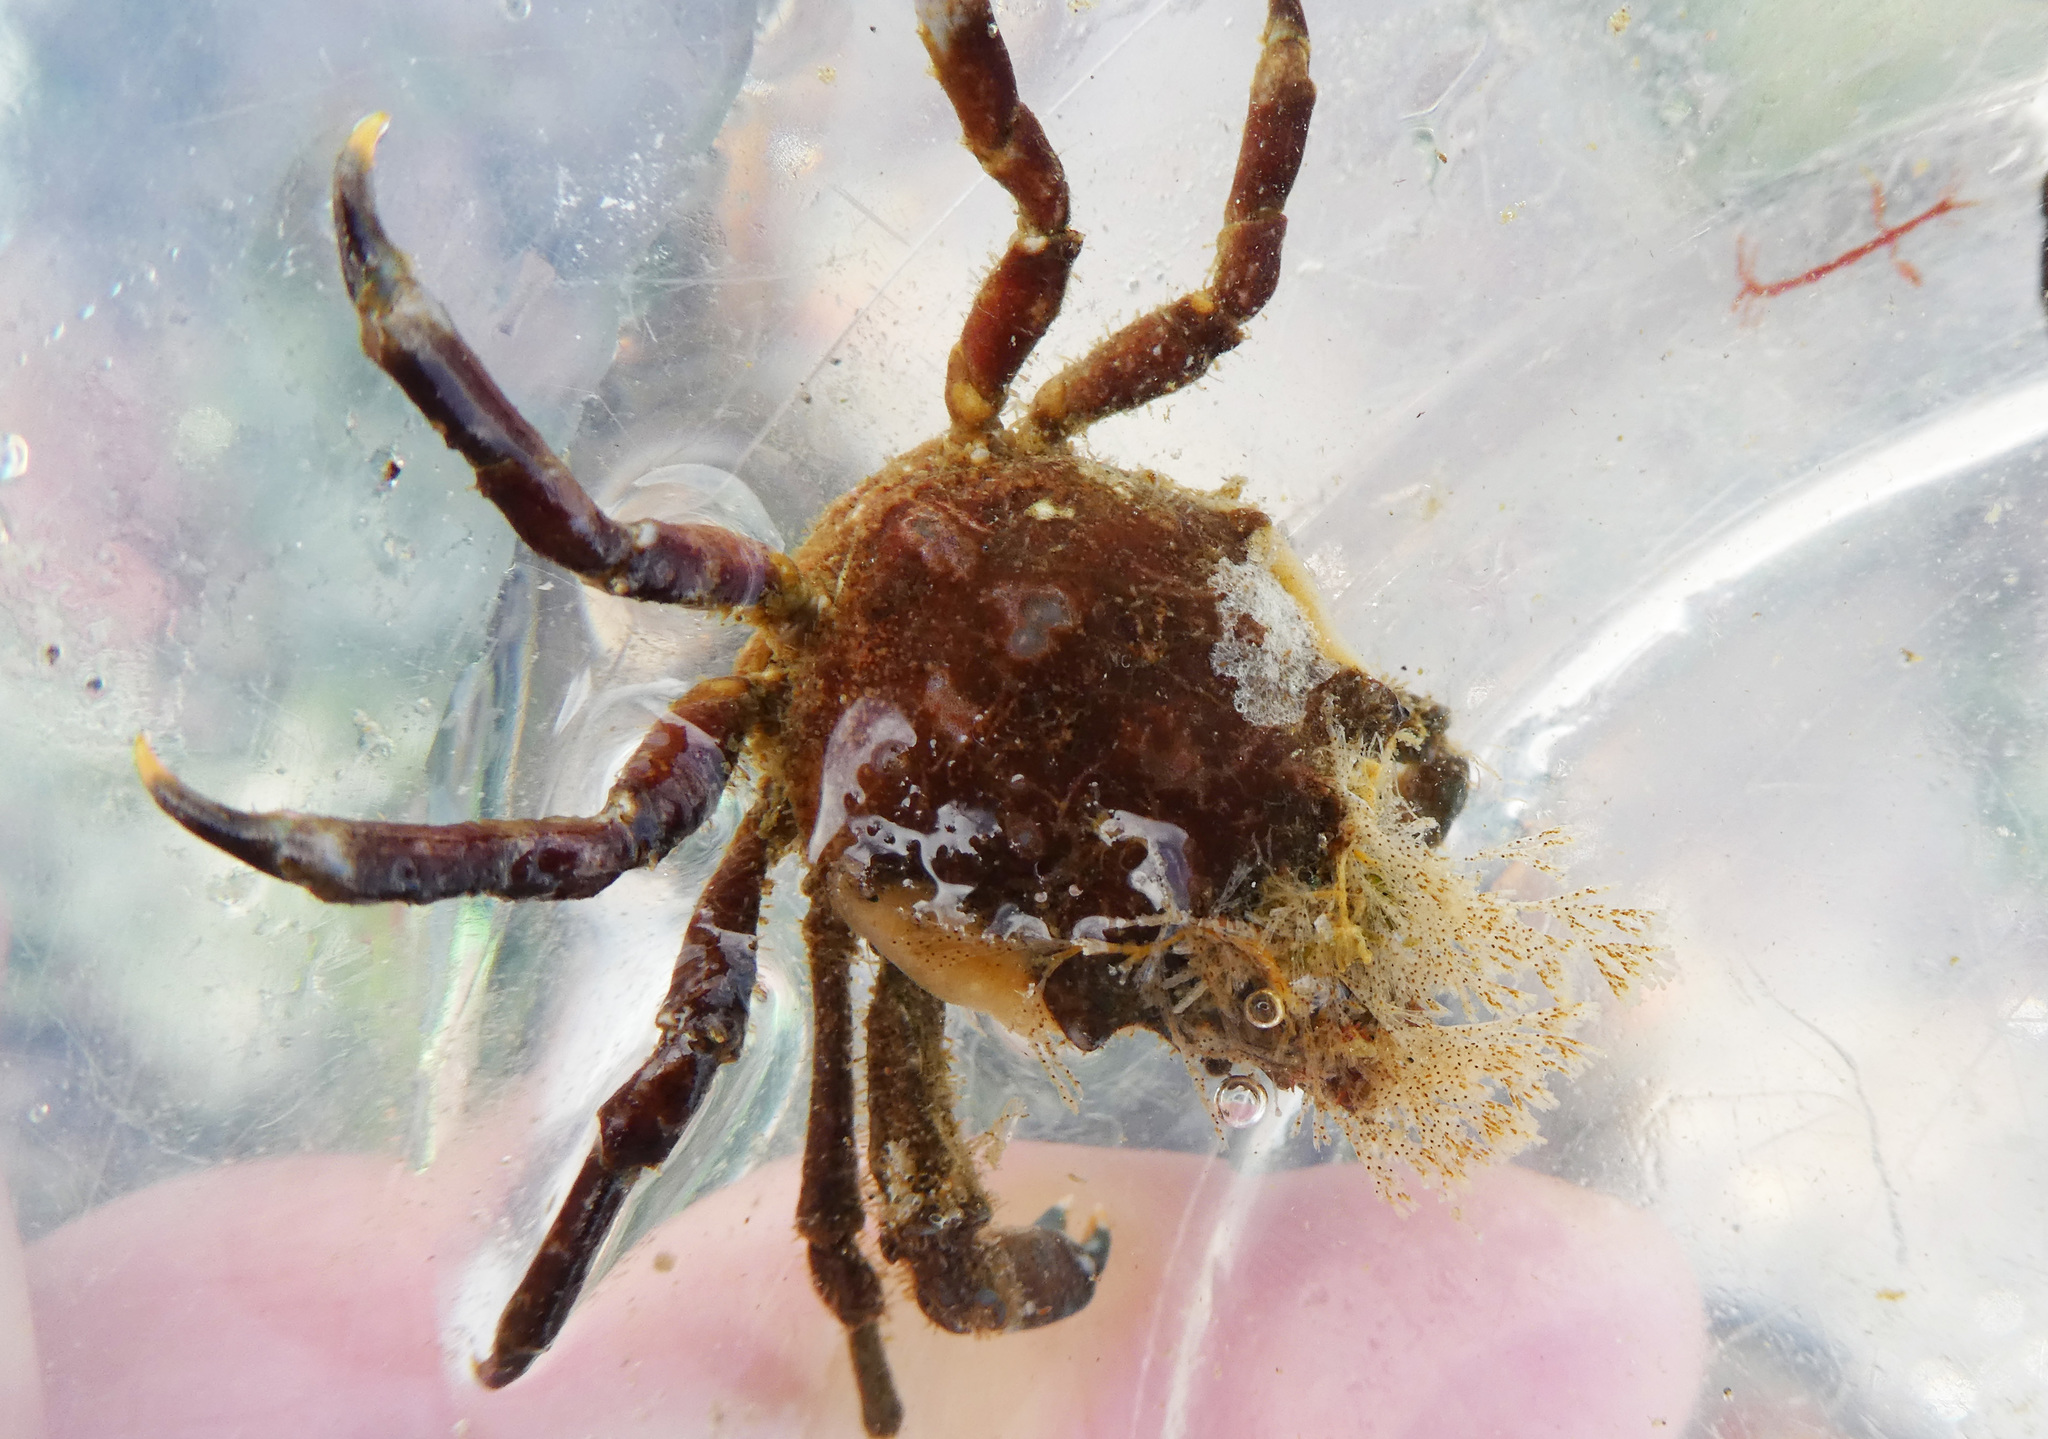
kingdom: Animalia
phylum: Arthropoda
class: Malacostraca
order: Decapoda
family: Epialtidae
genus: Pugettia
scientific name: Pugettia gracilis
